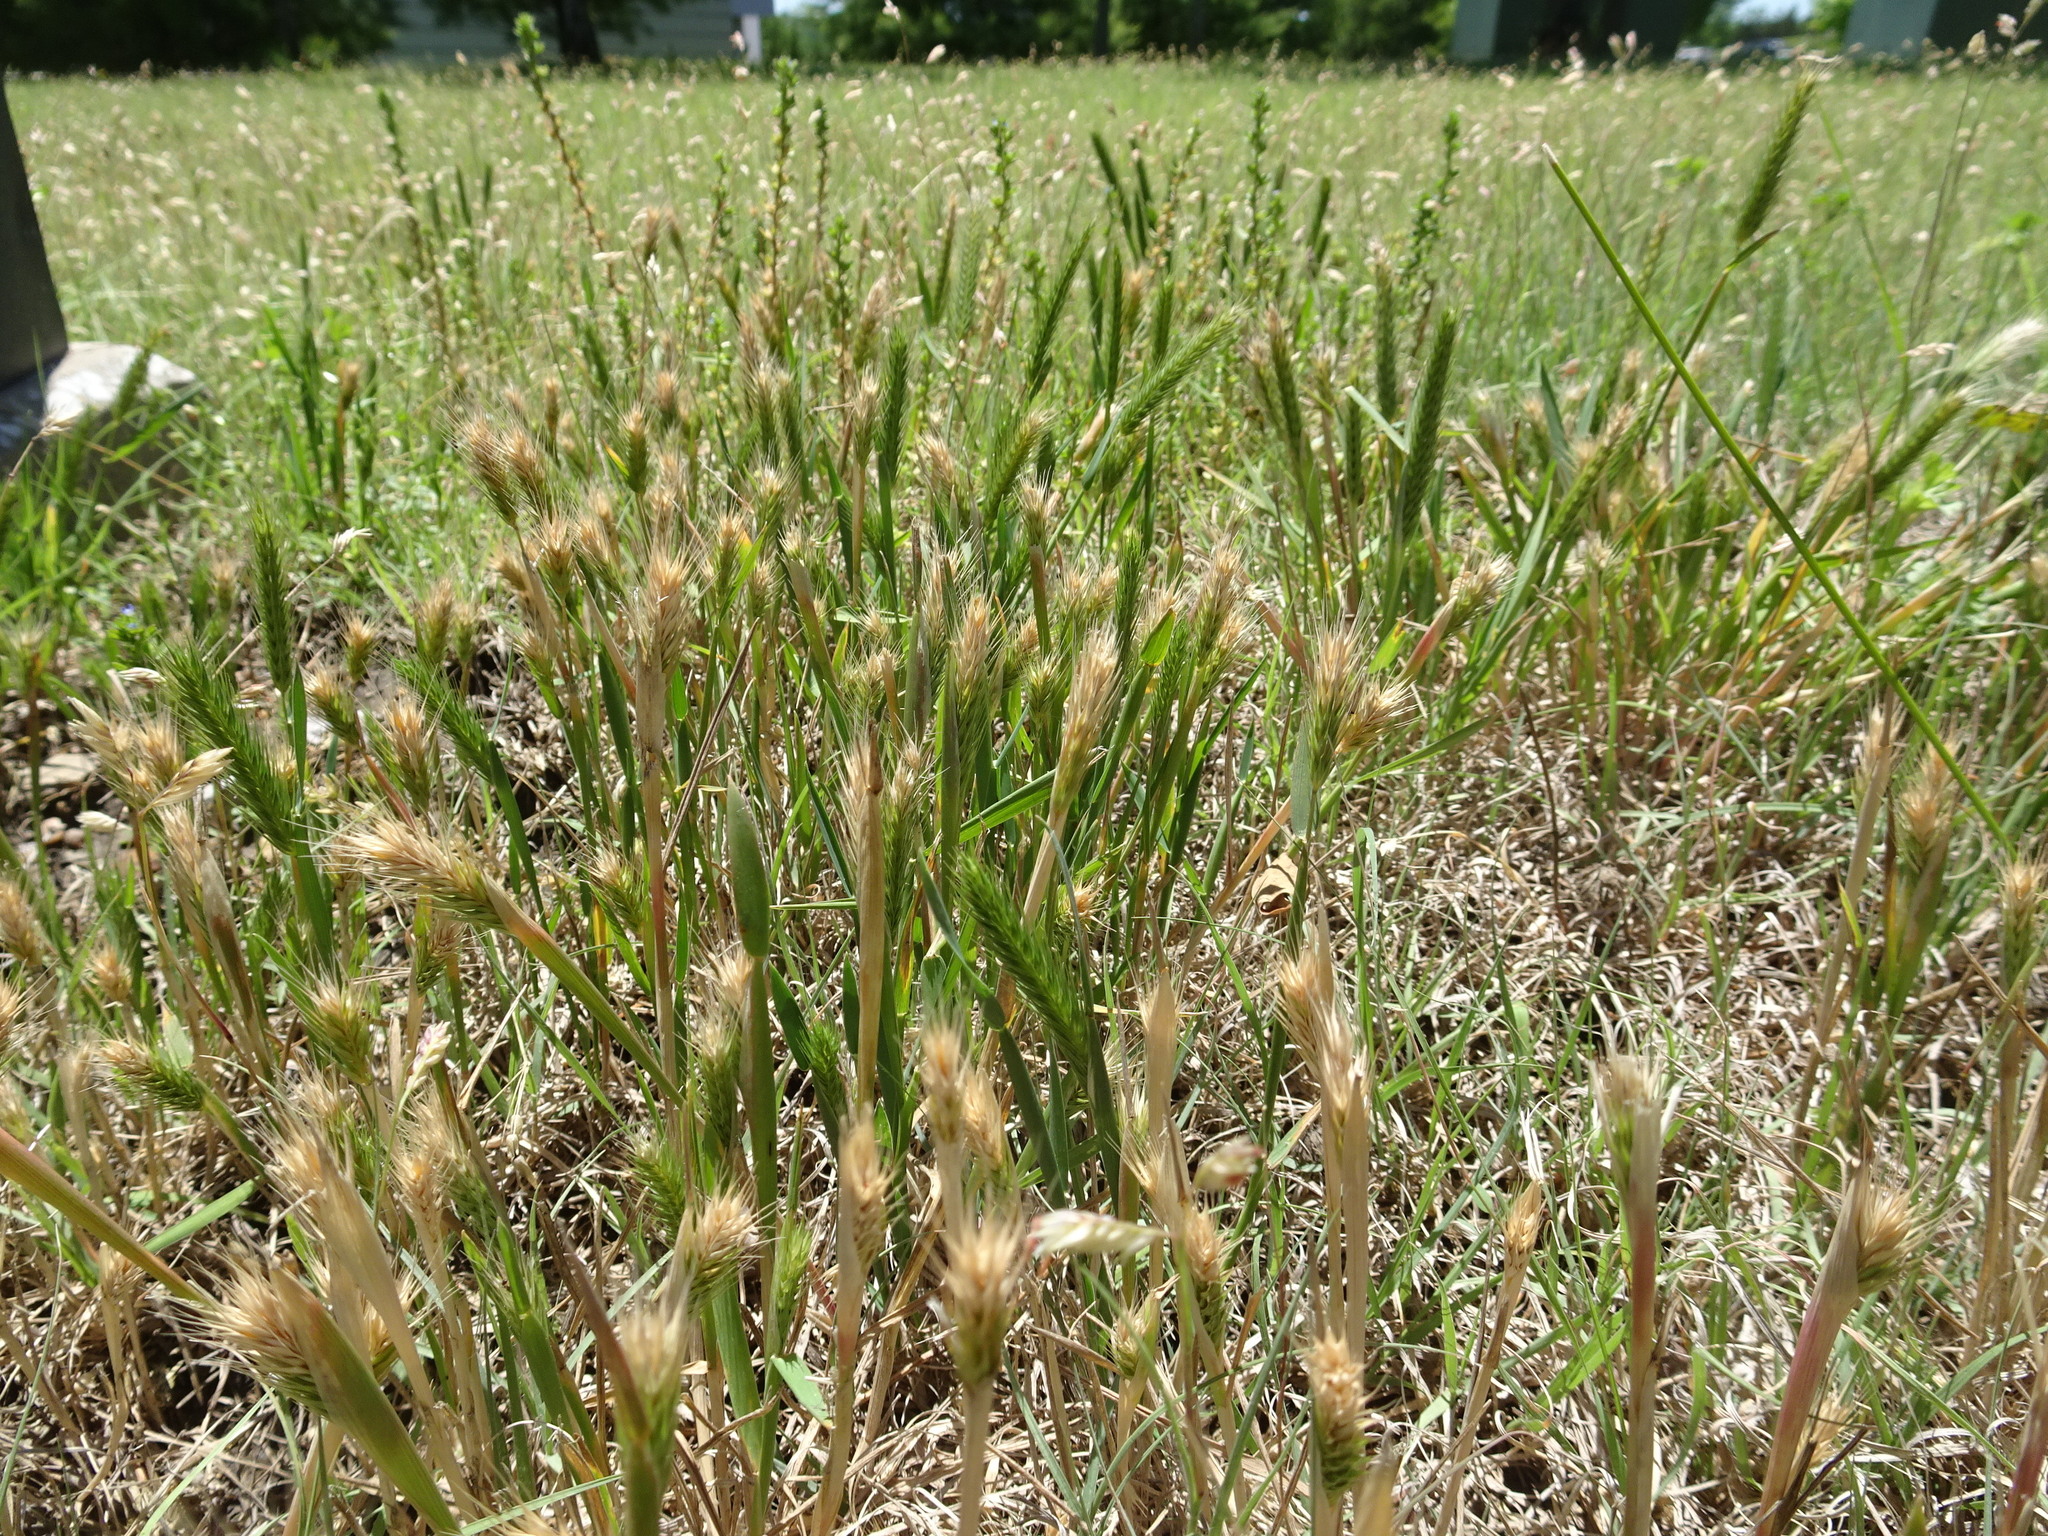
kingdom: Plantae
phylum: Tracheophyta
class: Liliopsida
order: Poales
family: Poaceae
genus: Hordeum
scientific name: Hordeum pusillum
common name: Little barley
